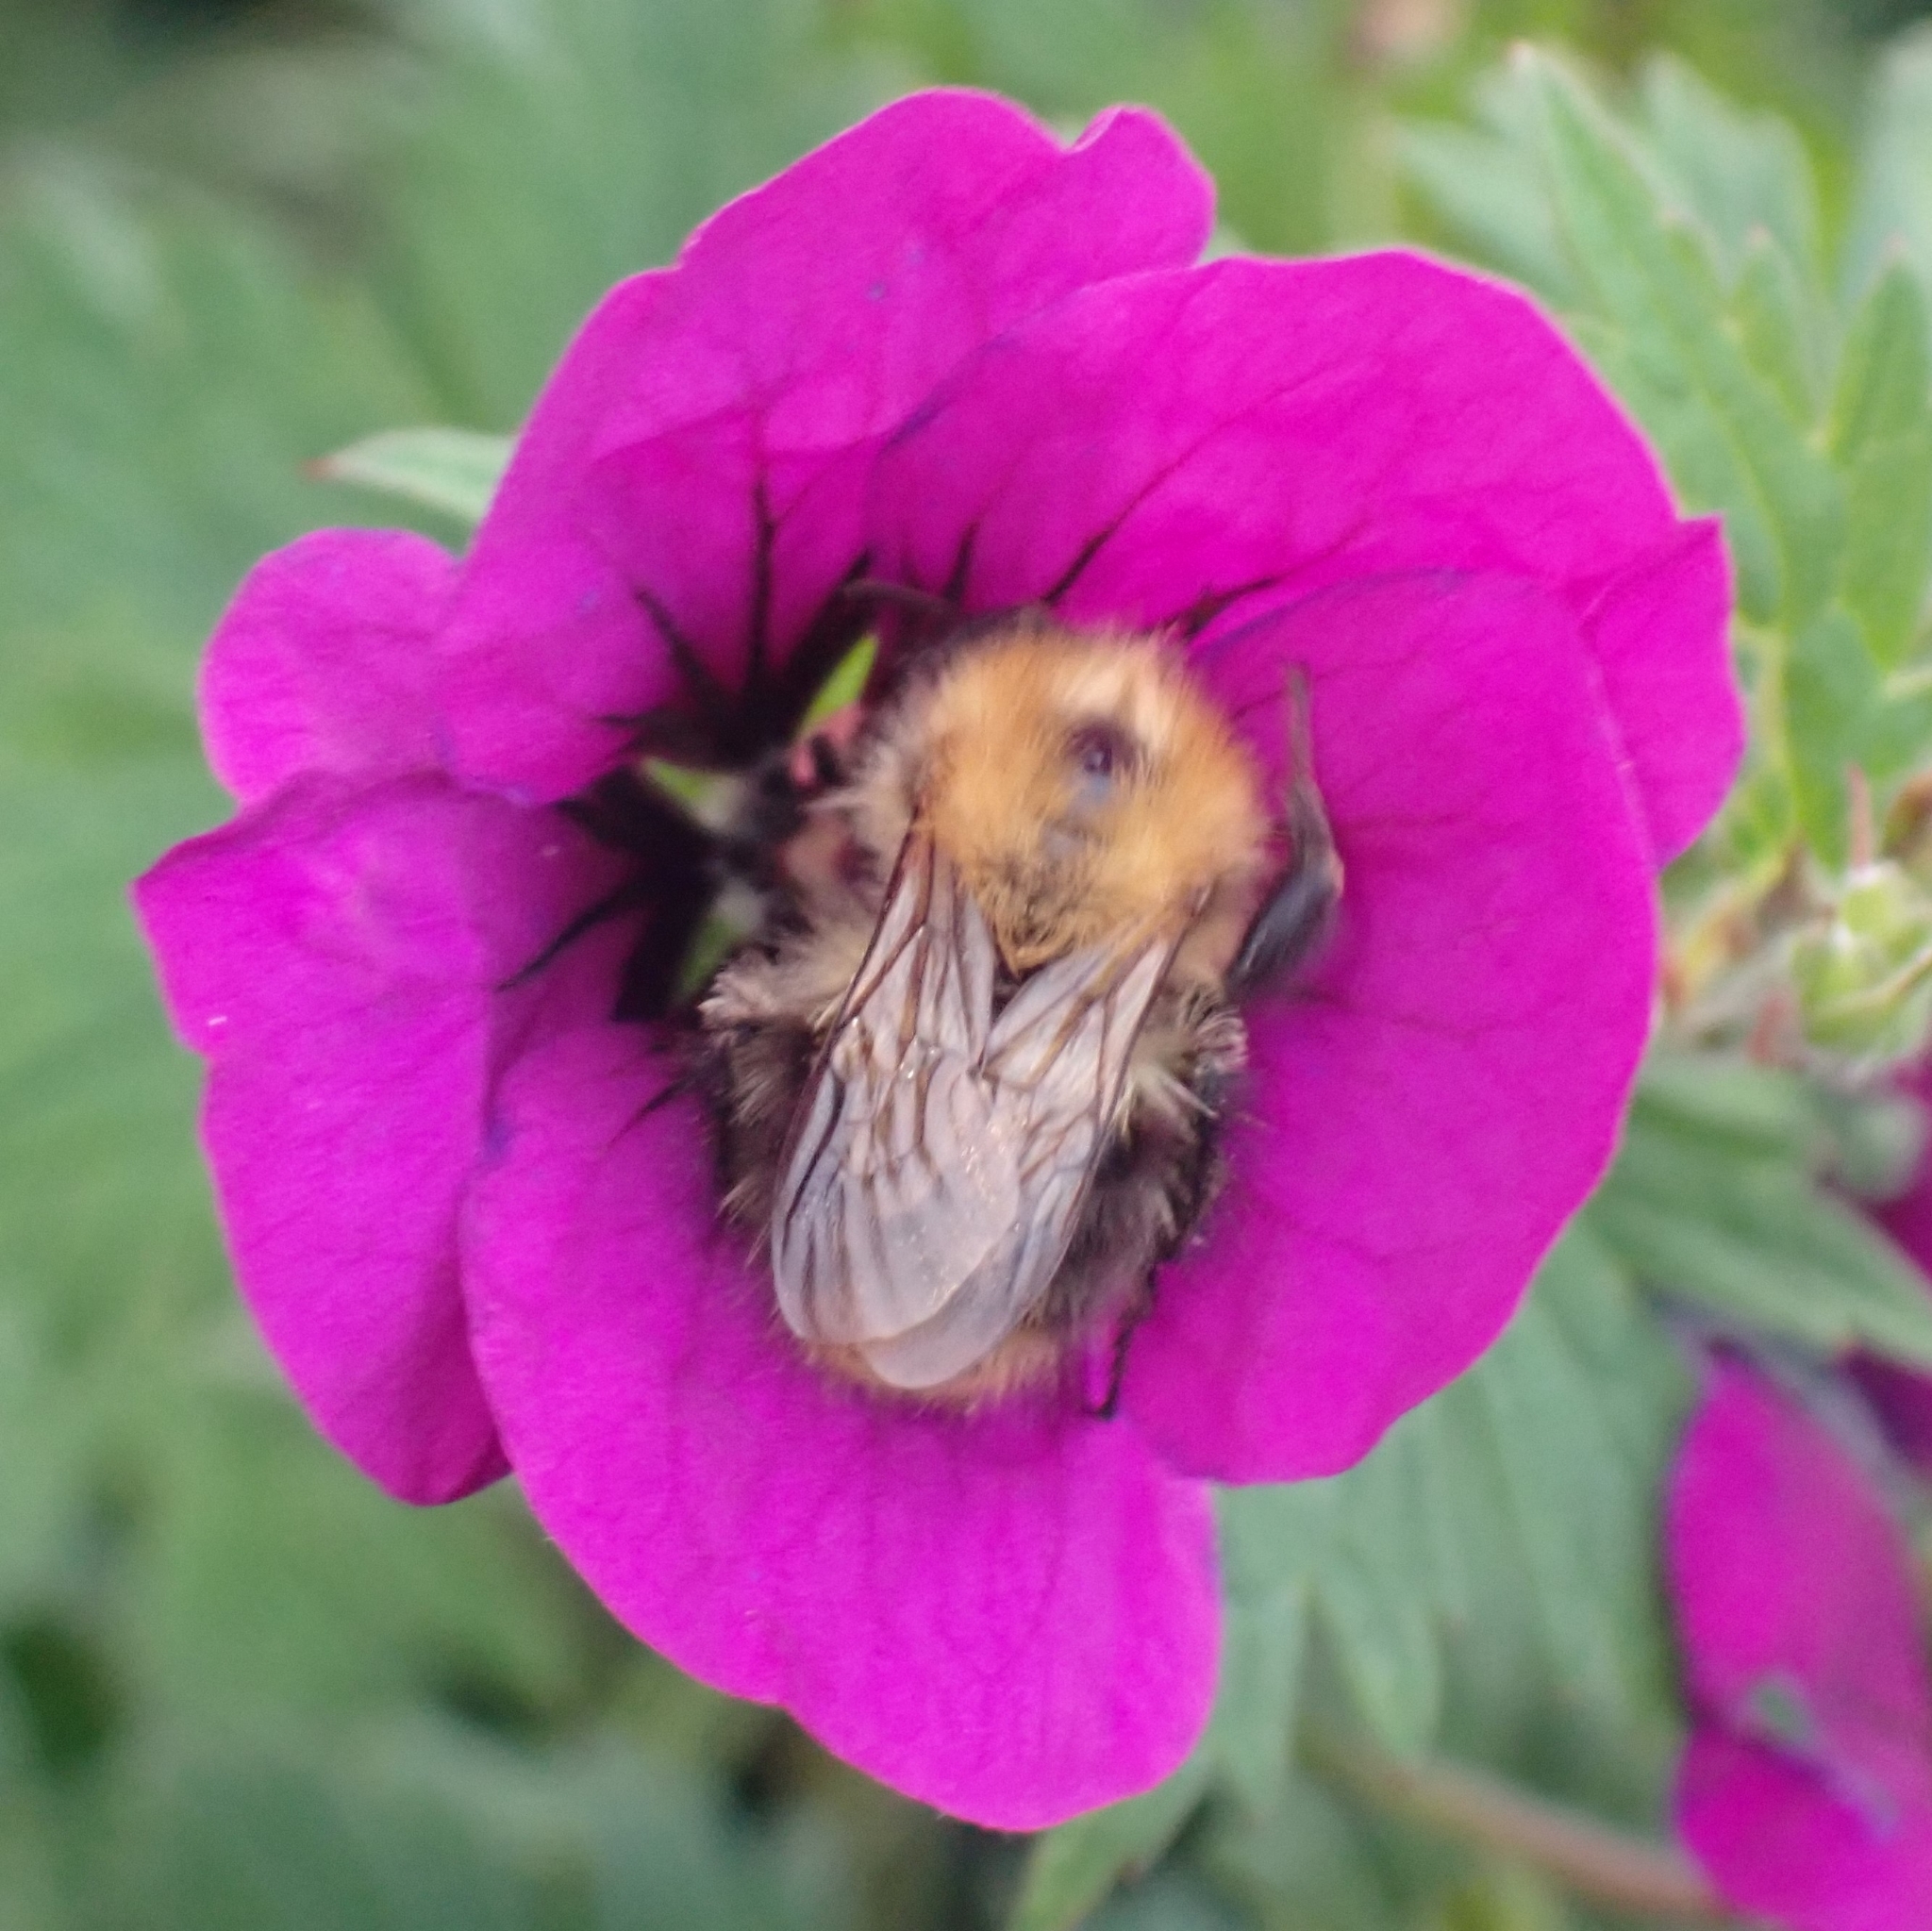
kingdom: Animalia
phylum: Arthropoda
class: Insecta
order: Hymenoptera
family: Apidae
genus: Bombus
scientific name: Bombus pascuorum
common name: Common carder bee
